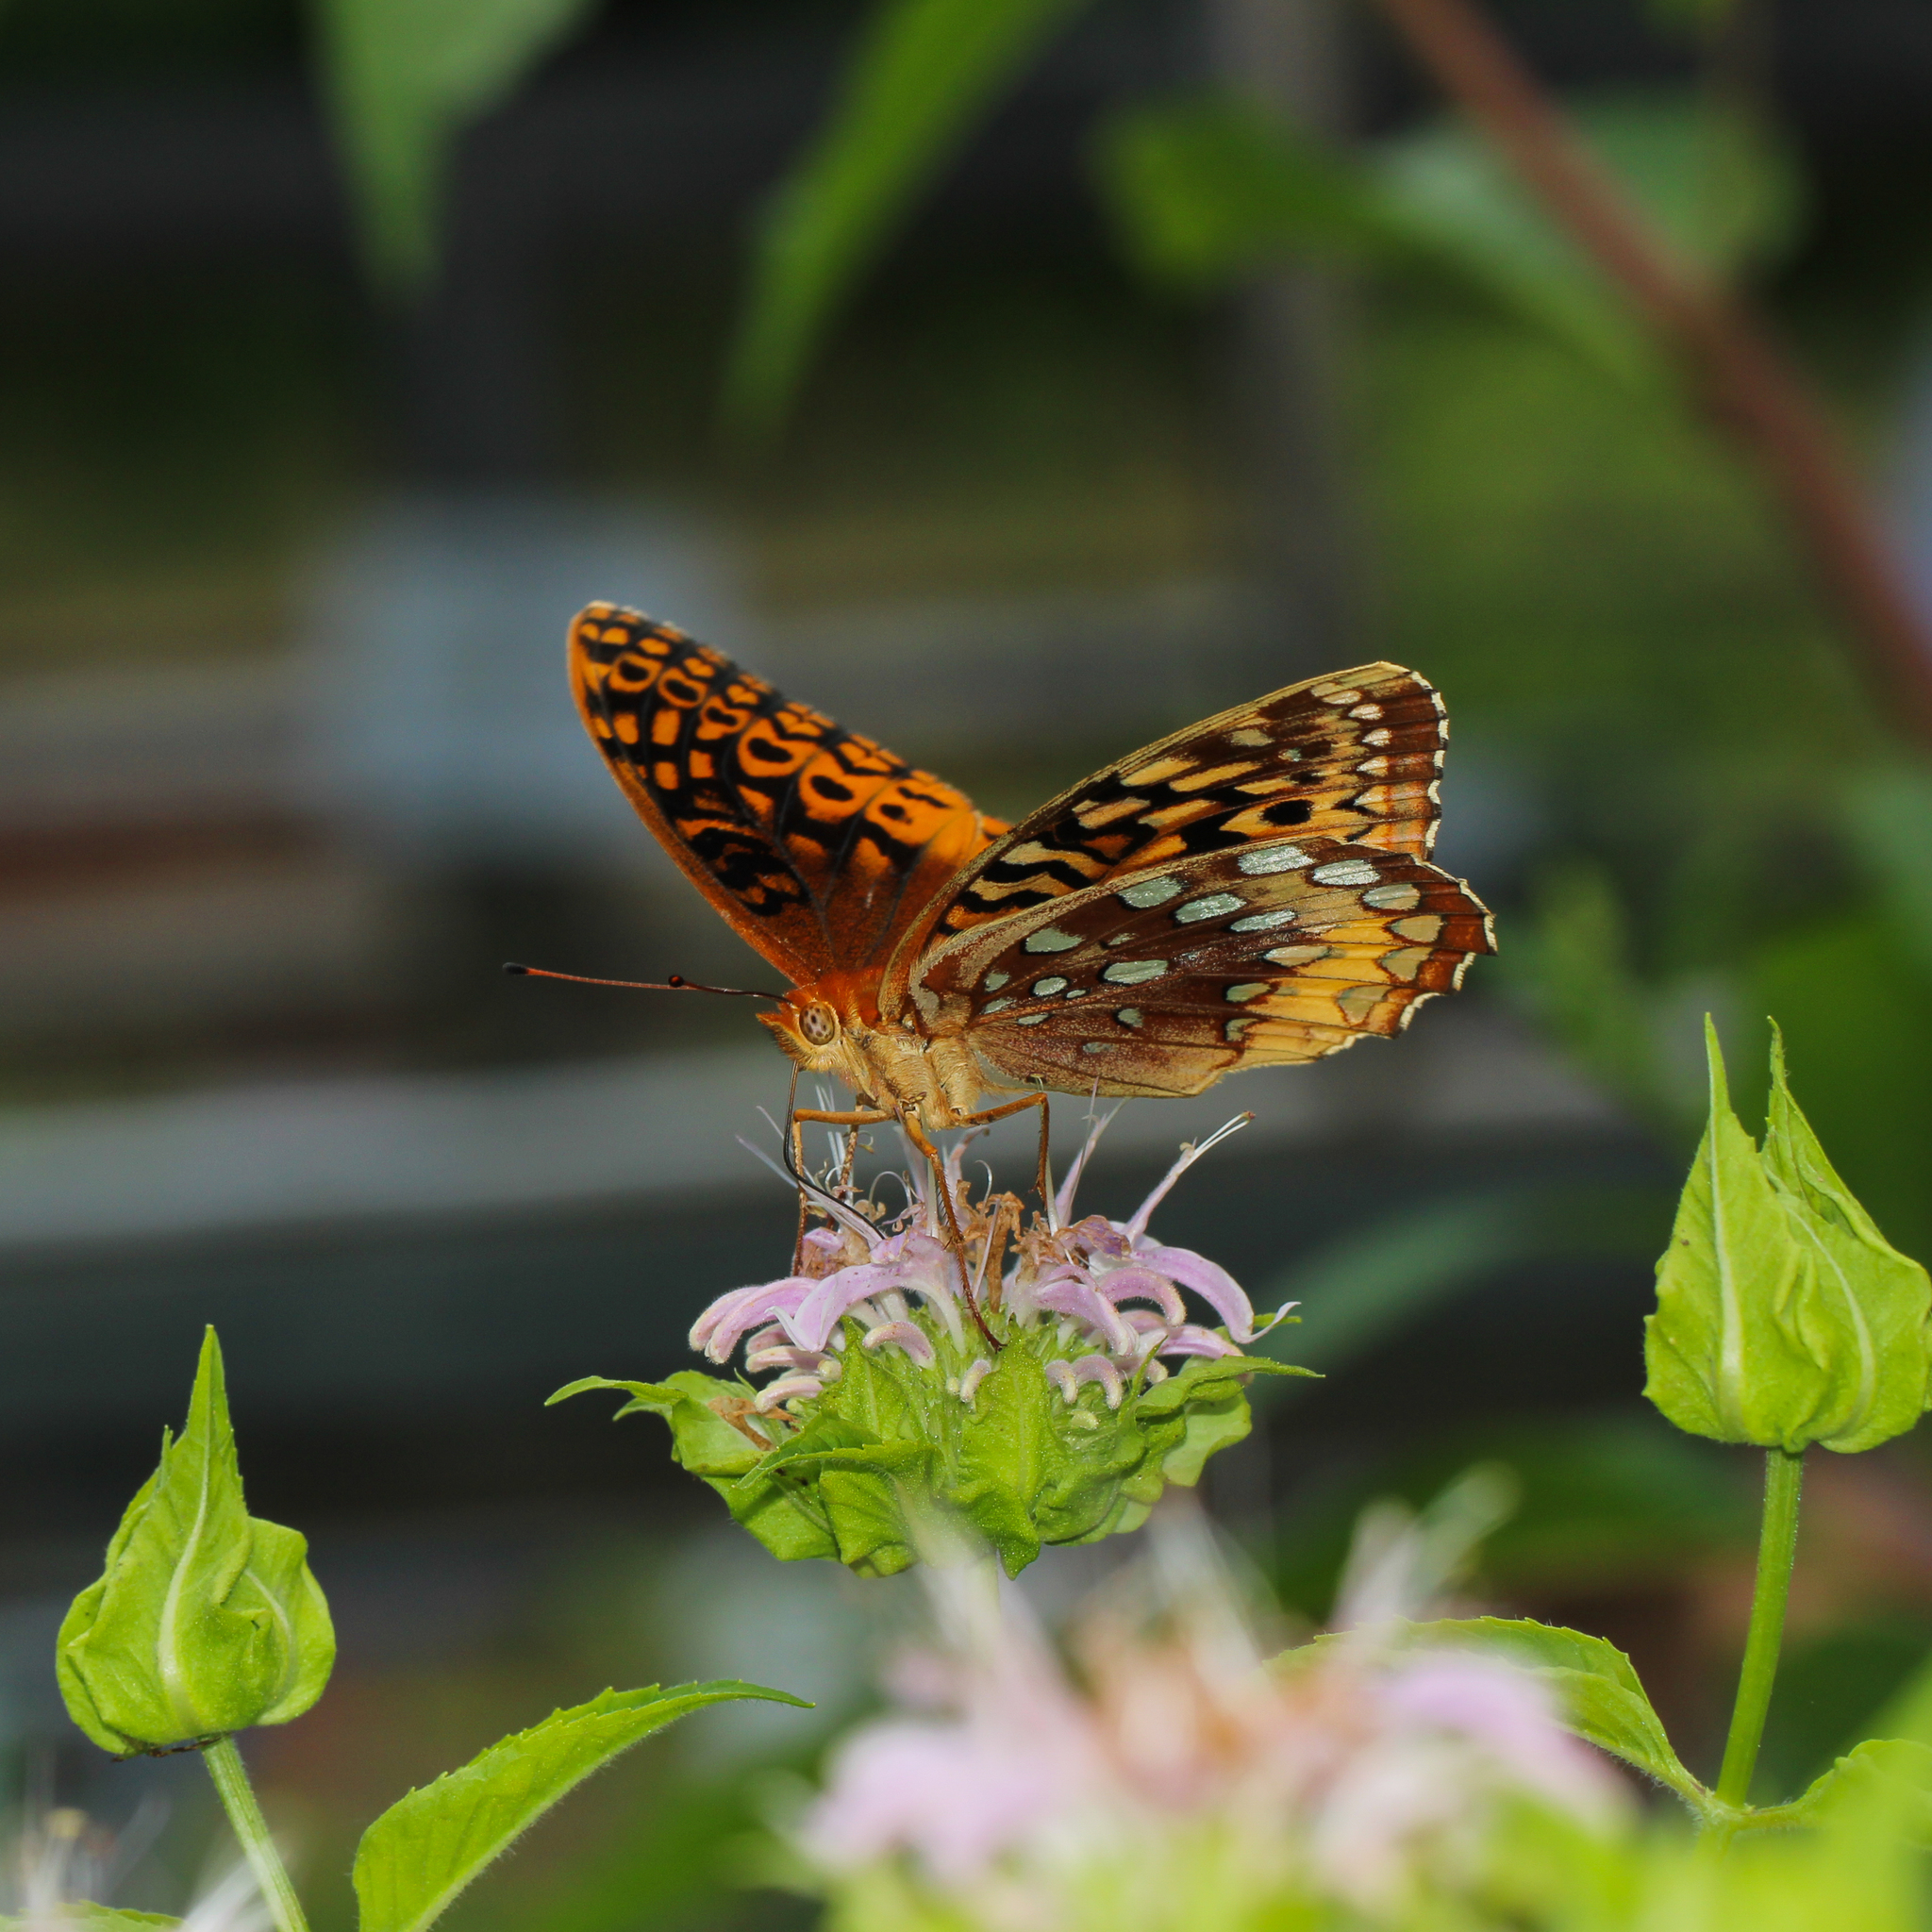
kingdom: Animalia
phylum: Arthropoda
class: Insecta
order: Lepidoptera
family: Nymphalidae
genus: Speyeria
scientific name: Speyeria cybele
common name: Great spangled fritillary
